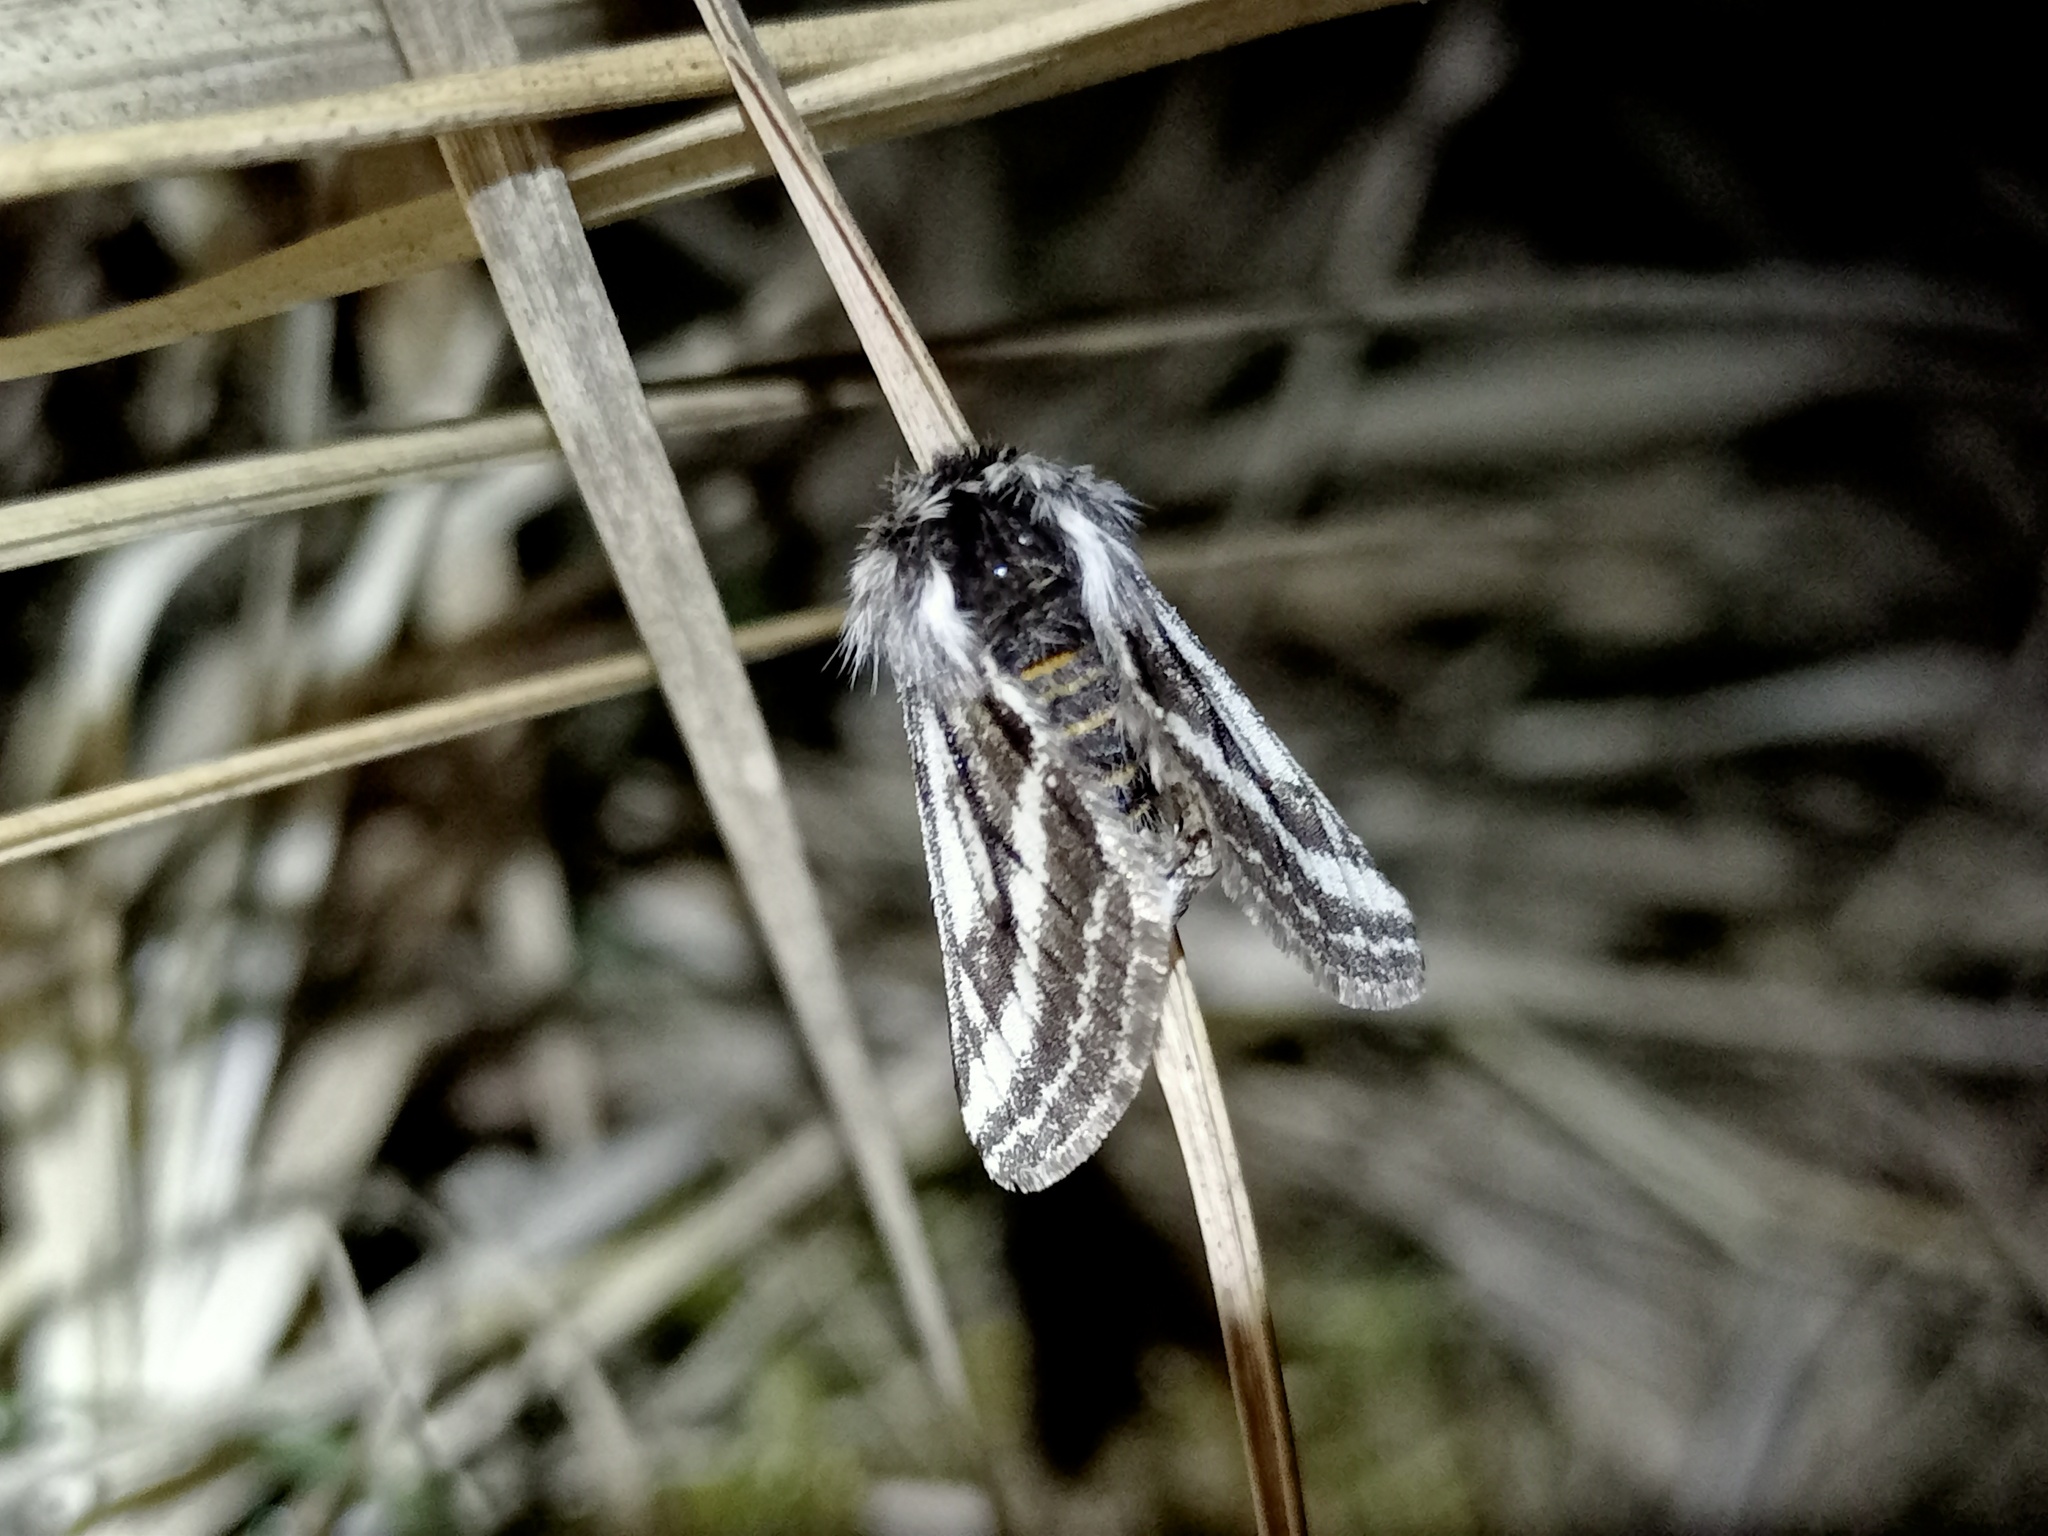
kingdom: Animalia
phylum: Arthropoda
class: Insecta
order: Lepidoptera
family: Geometridae
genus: Lycia
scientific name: Lycia zonaria
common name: Belted beauty
